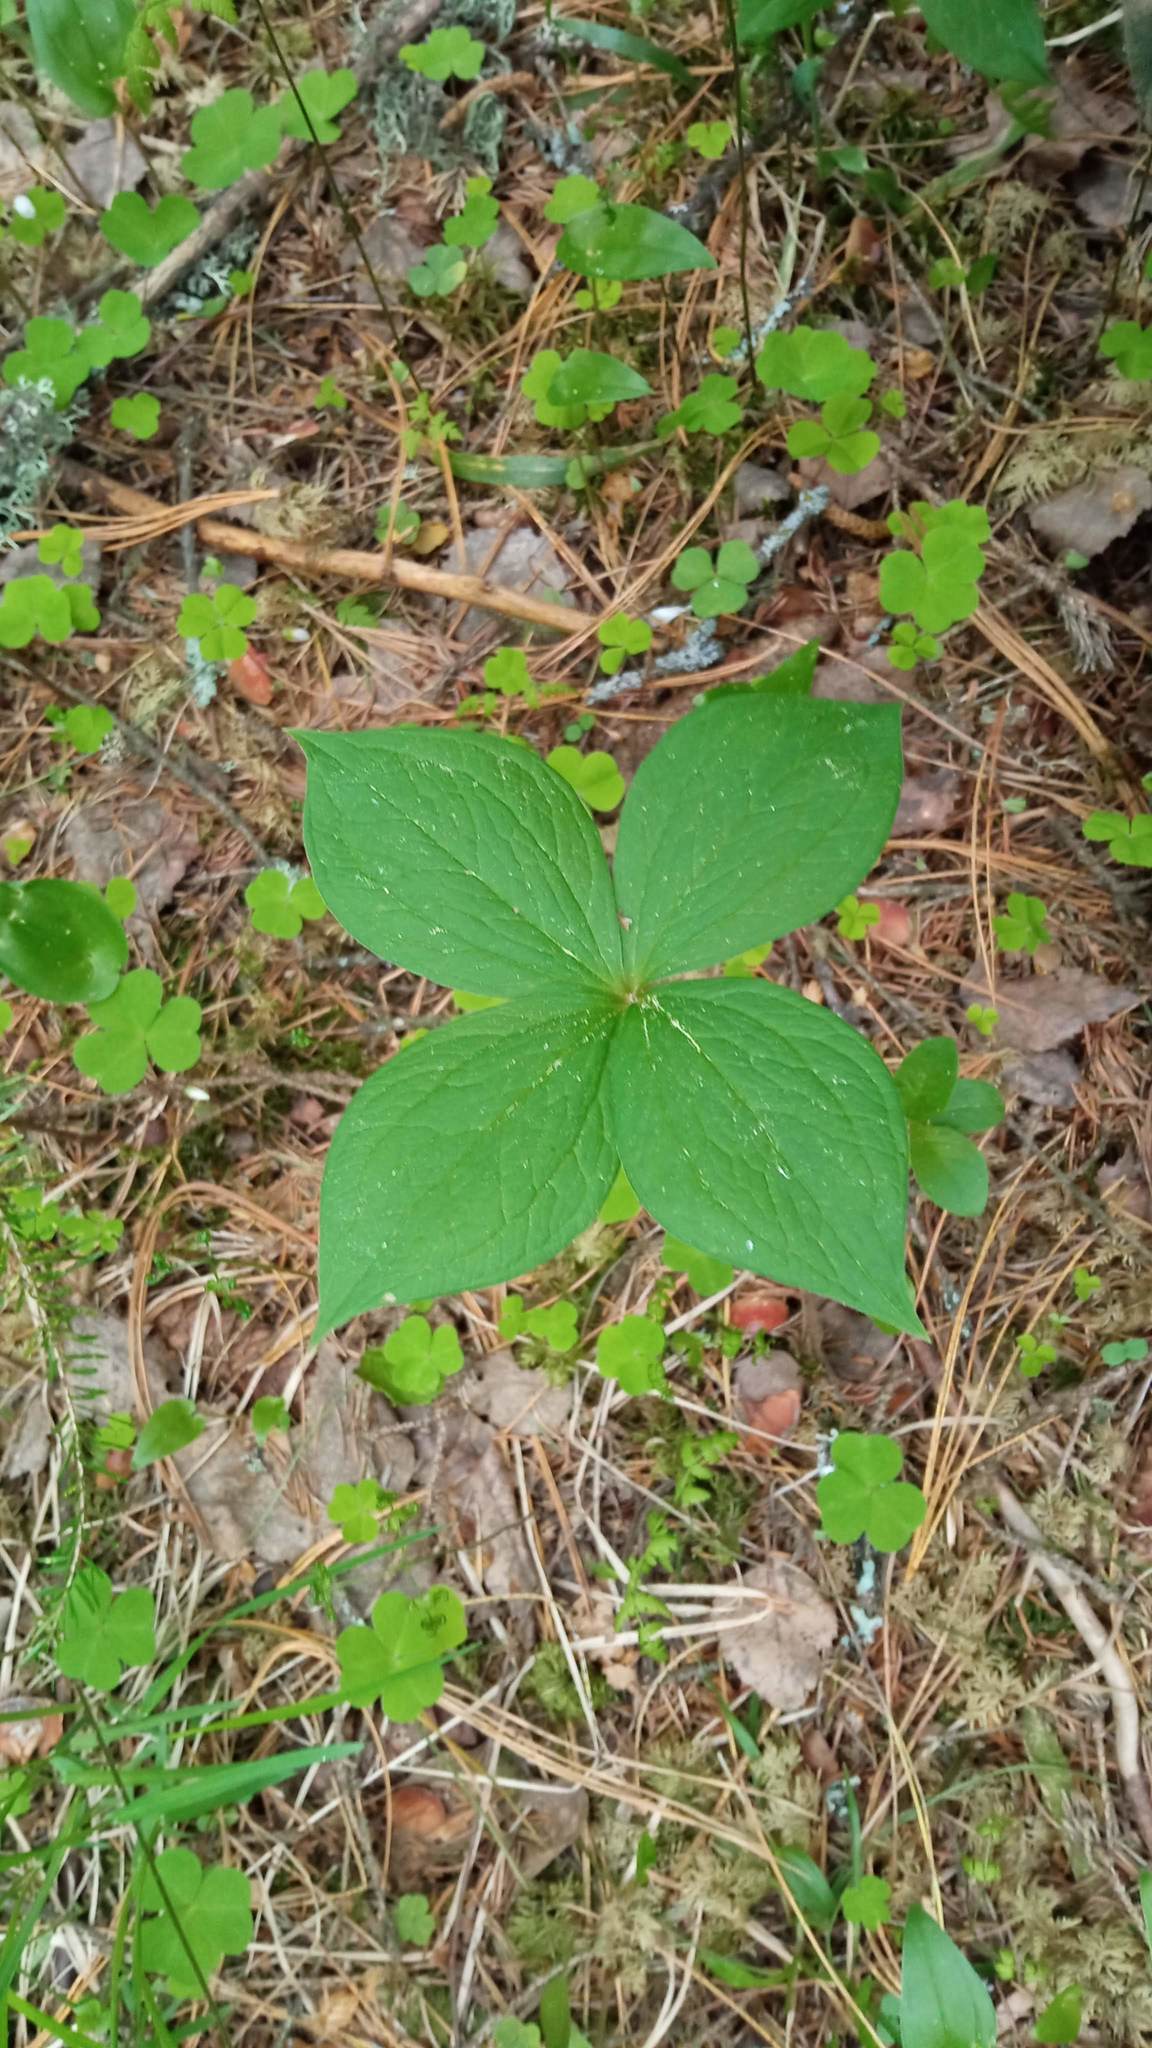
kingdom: Plantae
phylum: Tracheophyta
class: Liliopsida
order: Liliales
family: Melanthiaceae
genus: Paris
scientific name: Paris quadrifolia
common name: Herb-paris
